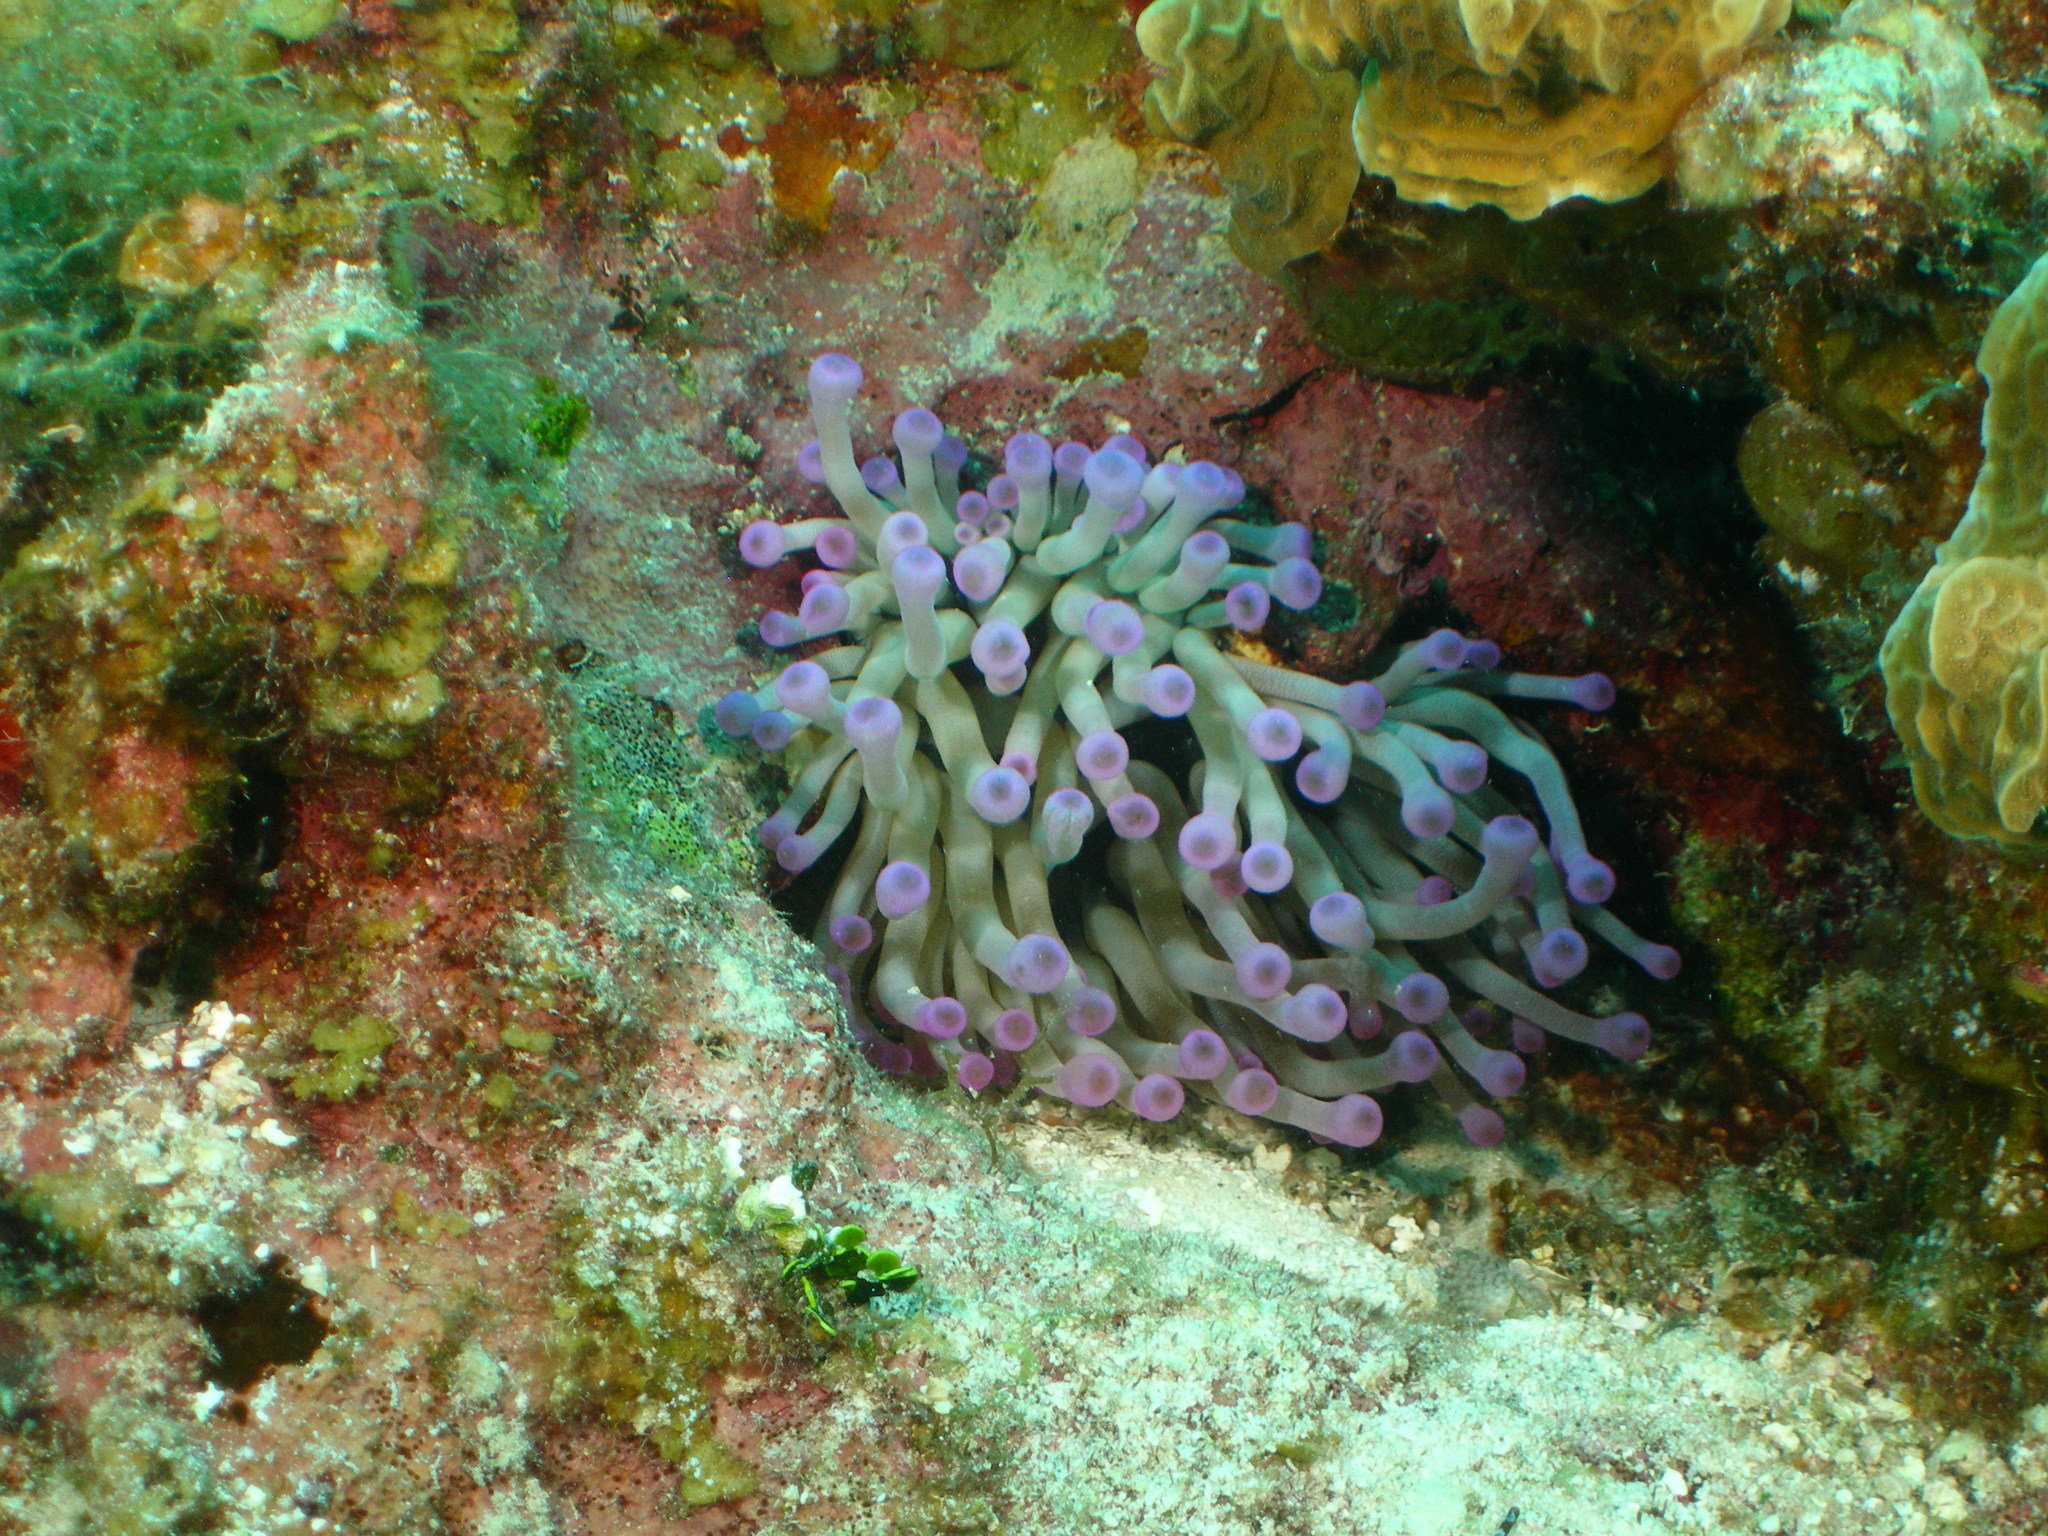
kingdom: Animalia
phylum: Cnidaria
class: Anthozoa
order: Actiniaria
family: Actiniidae
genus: Condylactis
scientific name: Condylactis gigantea
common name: Giant caribbean anemone
